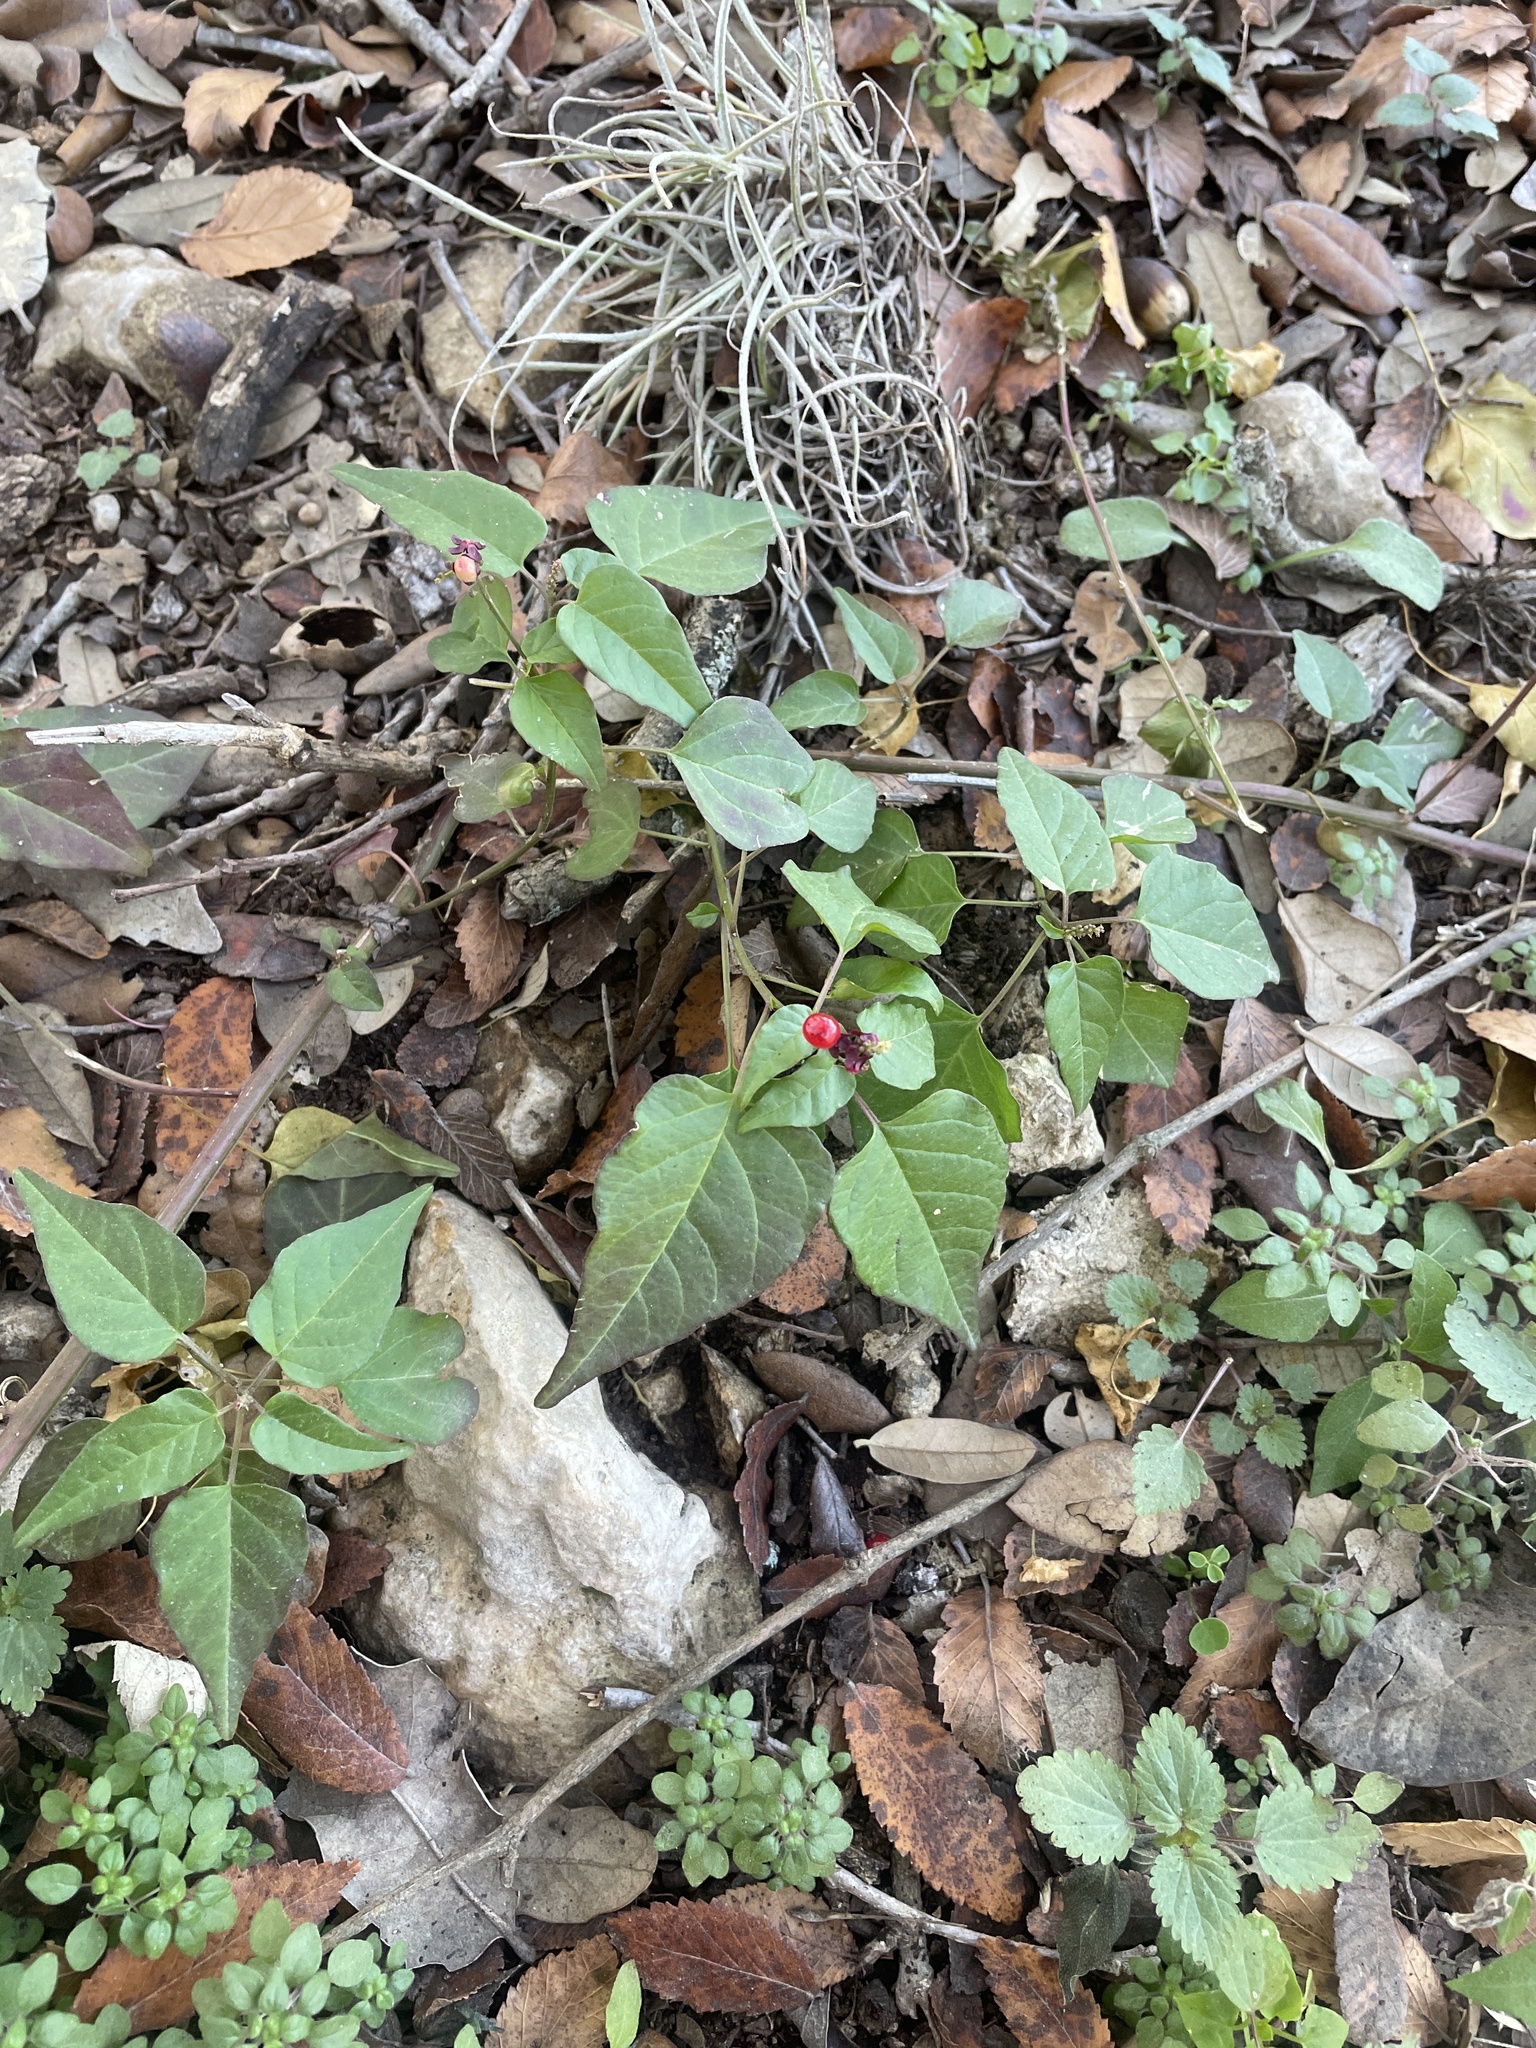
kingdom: Plantae
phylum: Tracheophyta
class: Magnoliopsida
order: Caryophyllales
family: Phytolaccaceae
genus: Rivina
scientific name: Rivina humilis
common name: Rougeplant
